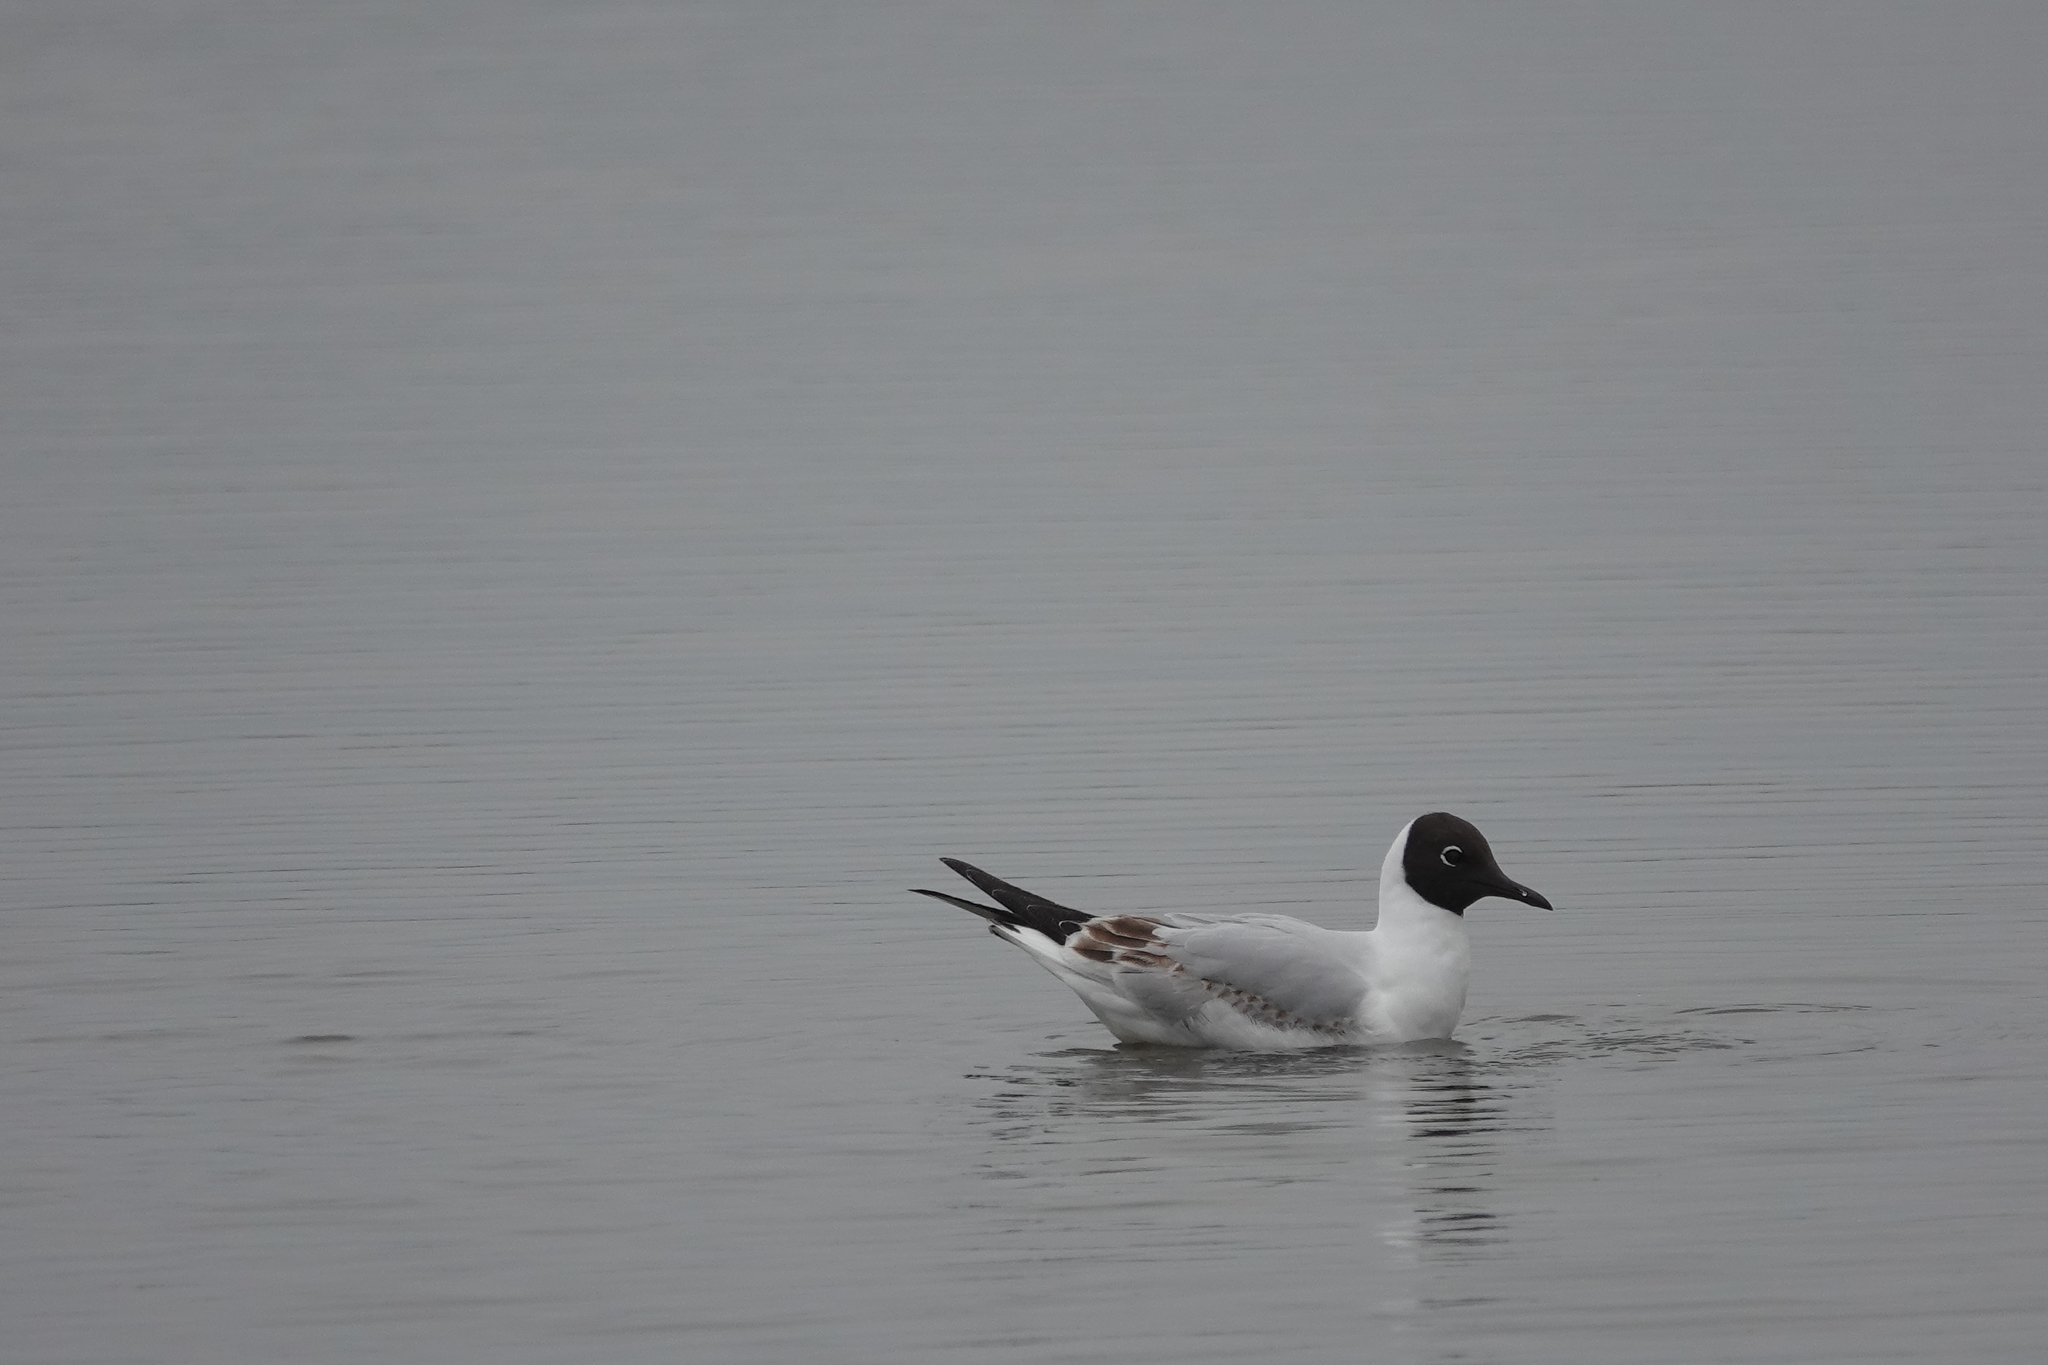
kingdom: Animalia
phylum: Chordata
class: Aves
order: Charadriiformes
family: Laridae
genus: Chroicocephalus
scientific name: Chroicocephalus ridibundus
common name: Black-headed gull
